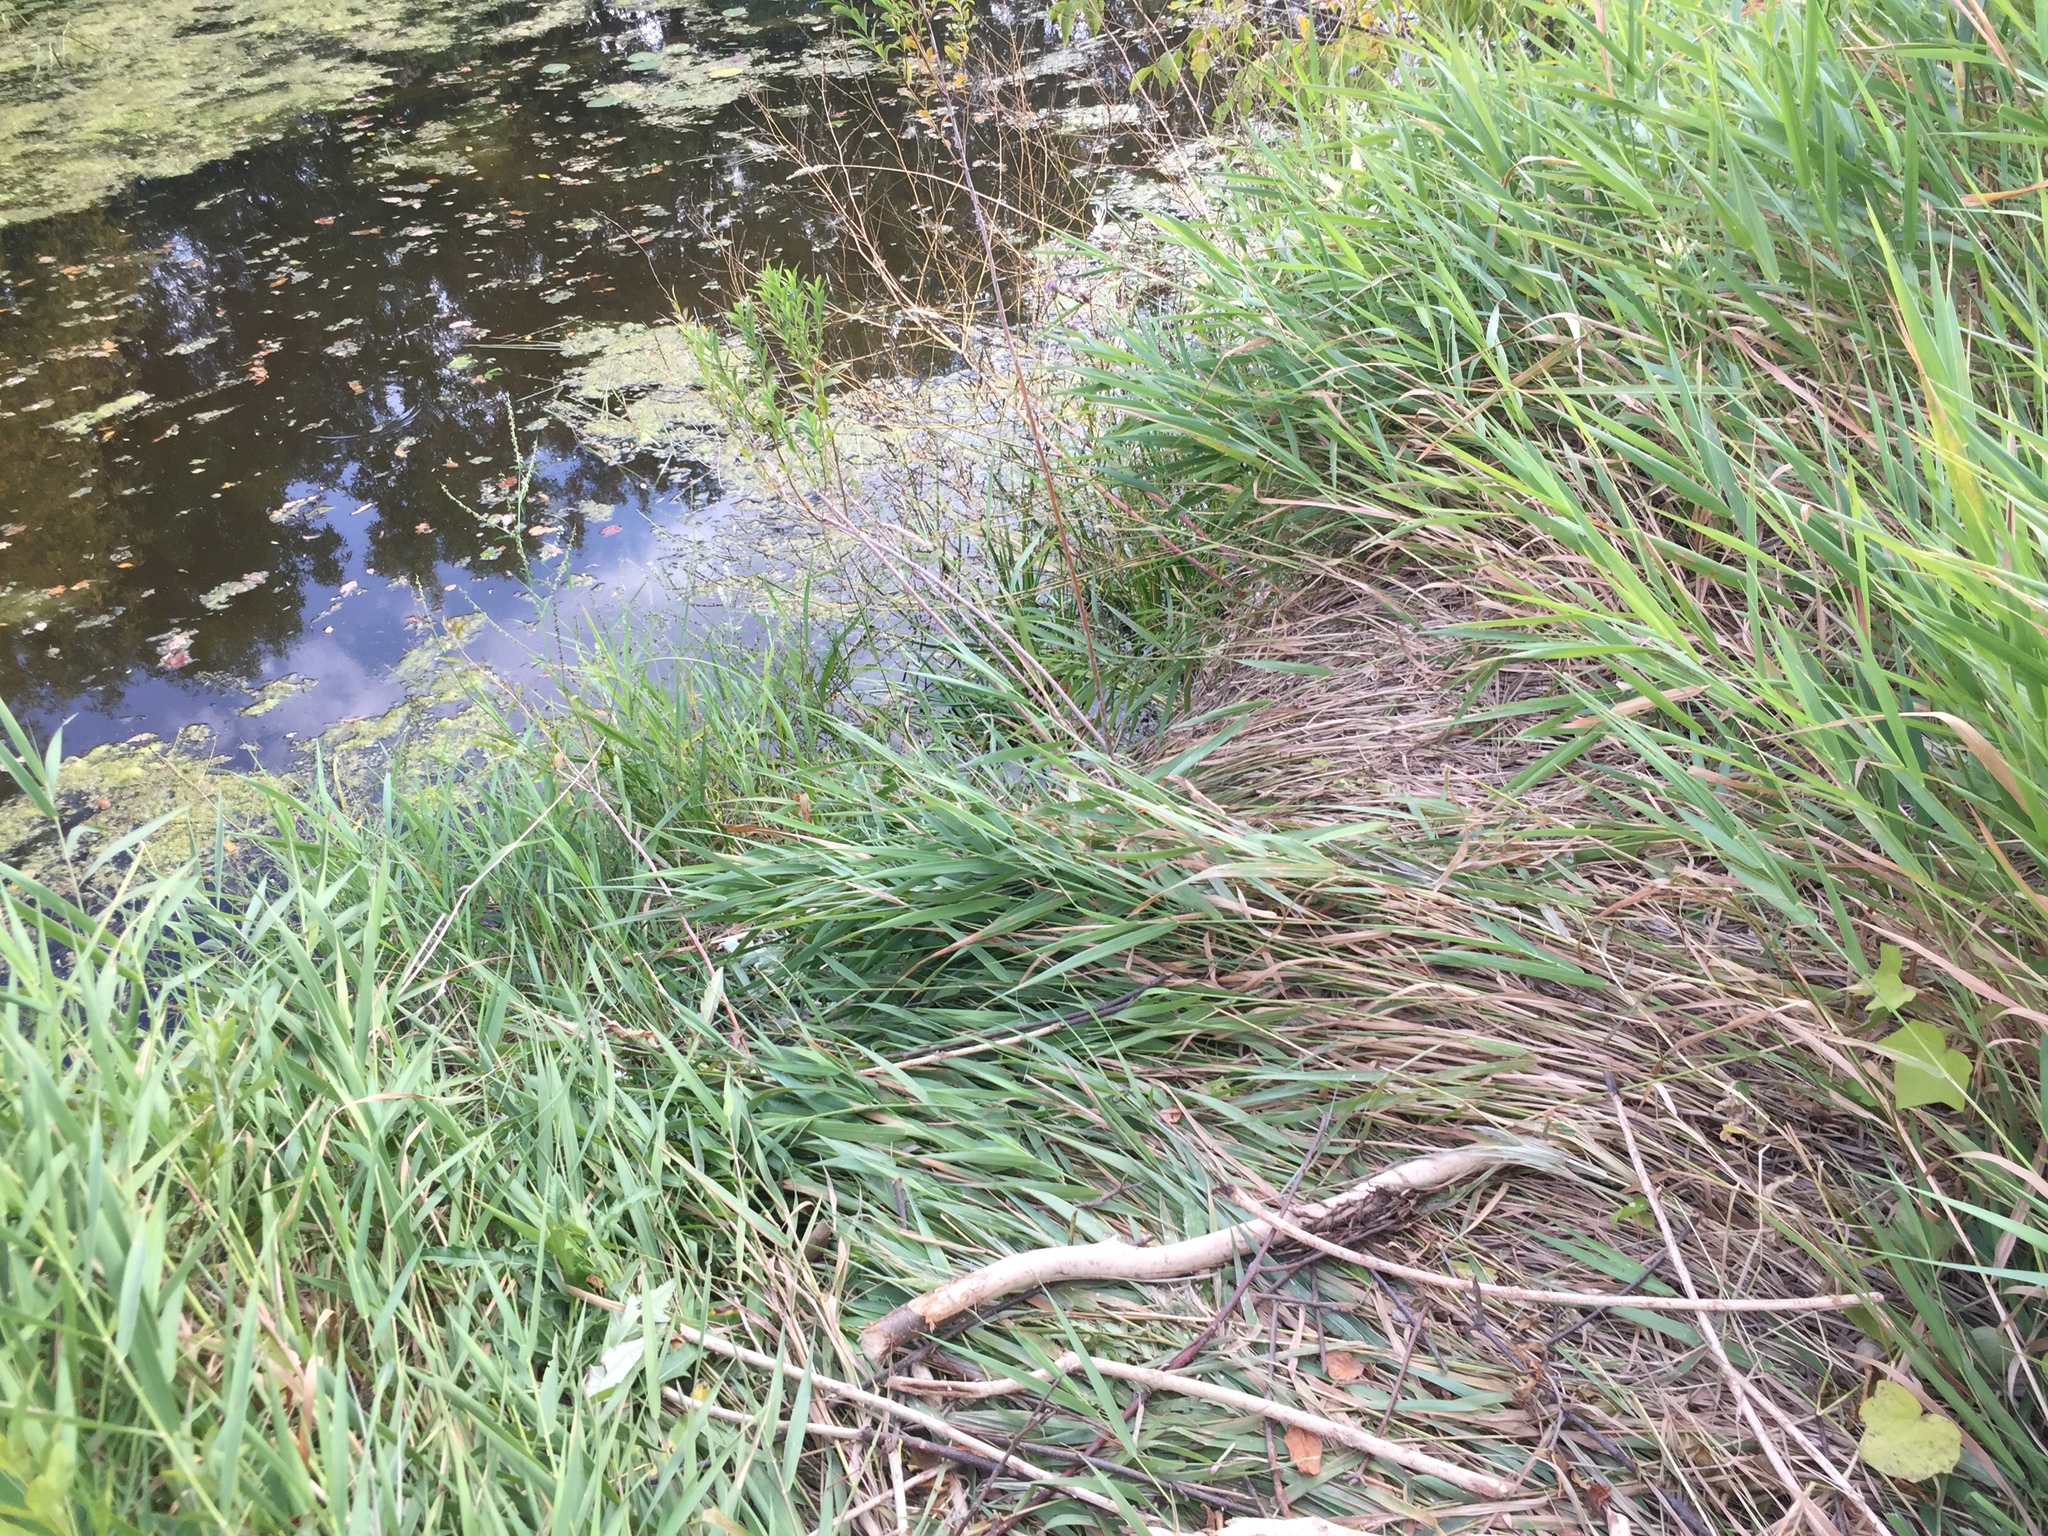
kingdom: Animalia
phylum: Chordata
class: Mammalia
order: Rodentia
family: Castoridae
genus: Castor
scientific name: Castor canadensis
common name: American beaver
